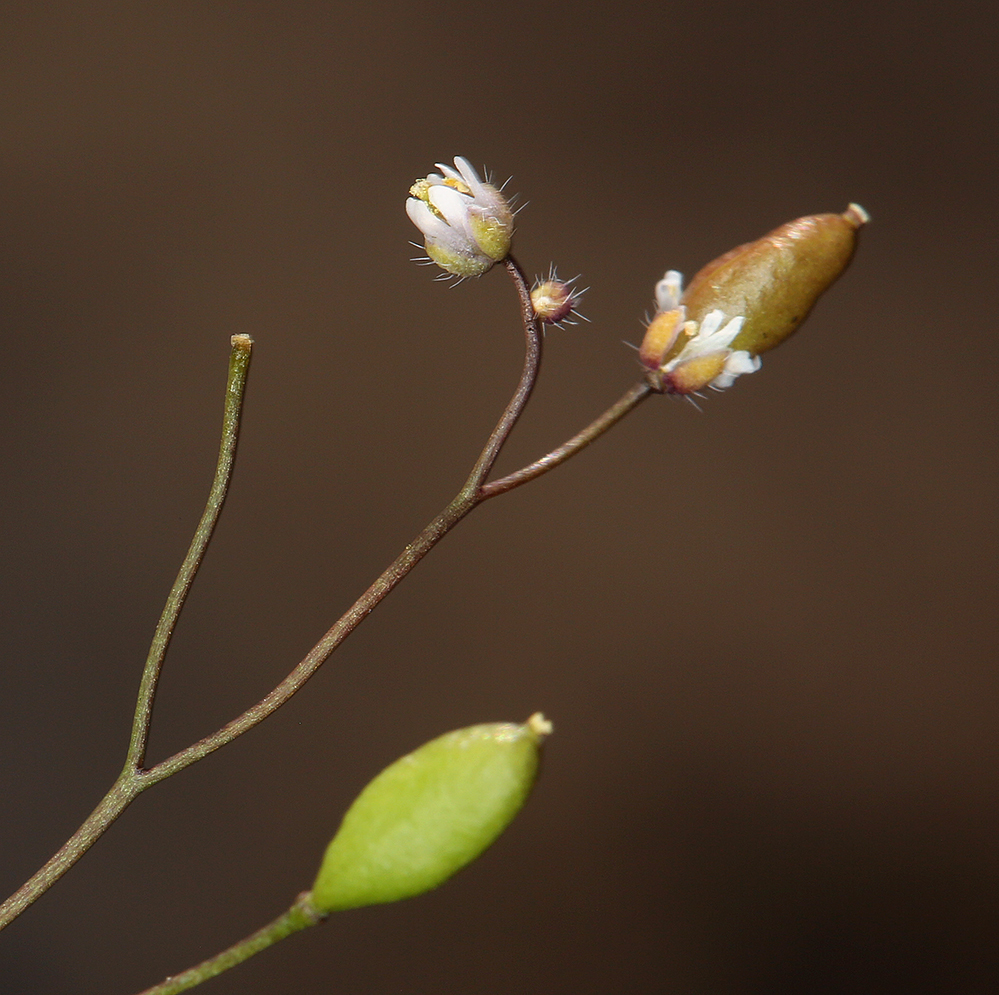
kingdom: Plantae
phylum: Tracheophyta
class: Magnoliopsida
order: Brassicales
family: Brassicaceae
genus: Draba
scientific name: Draba verna
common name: Spring draba
